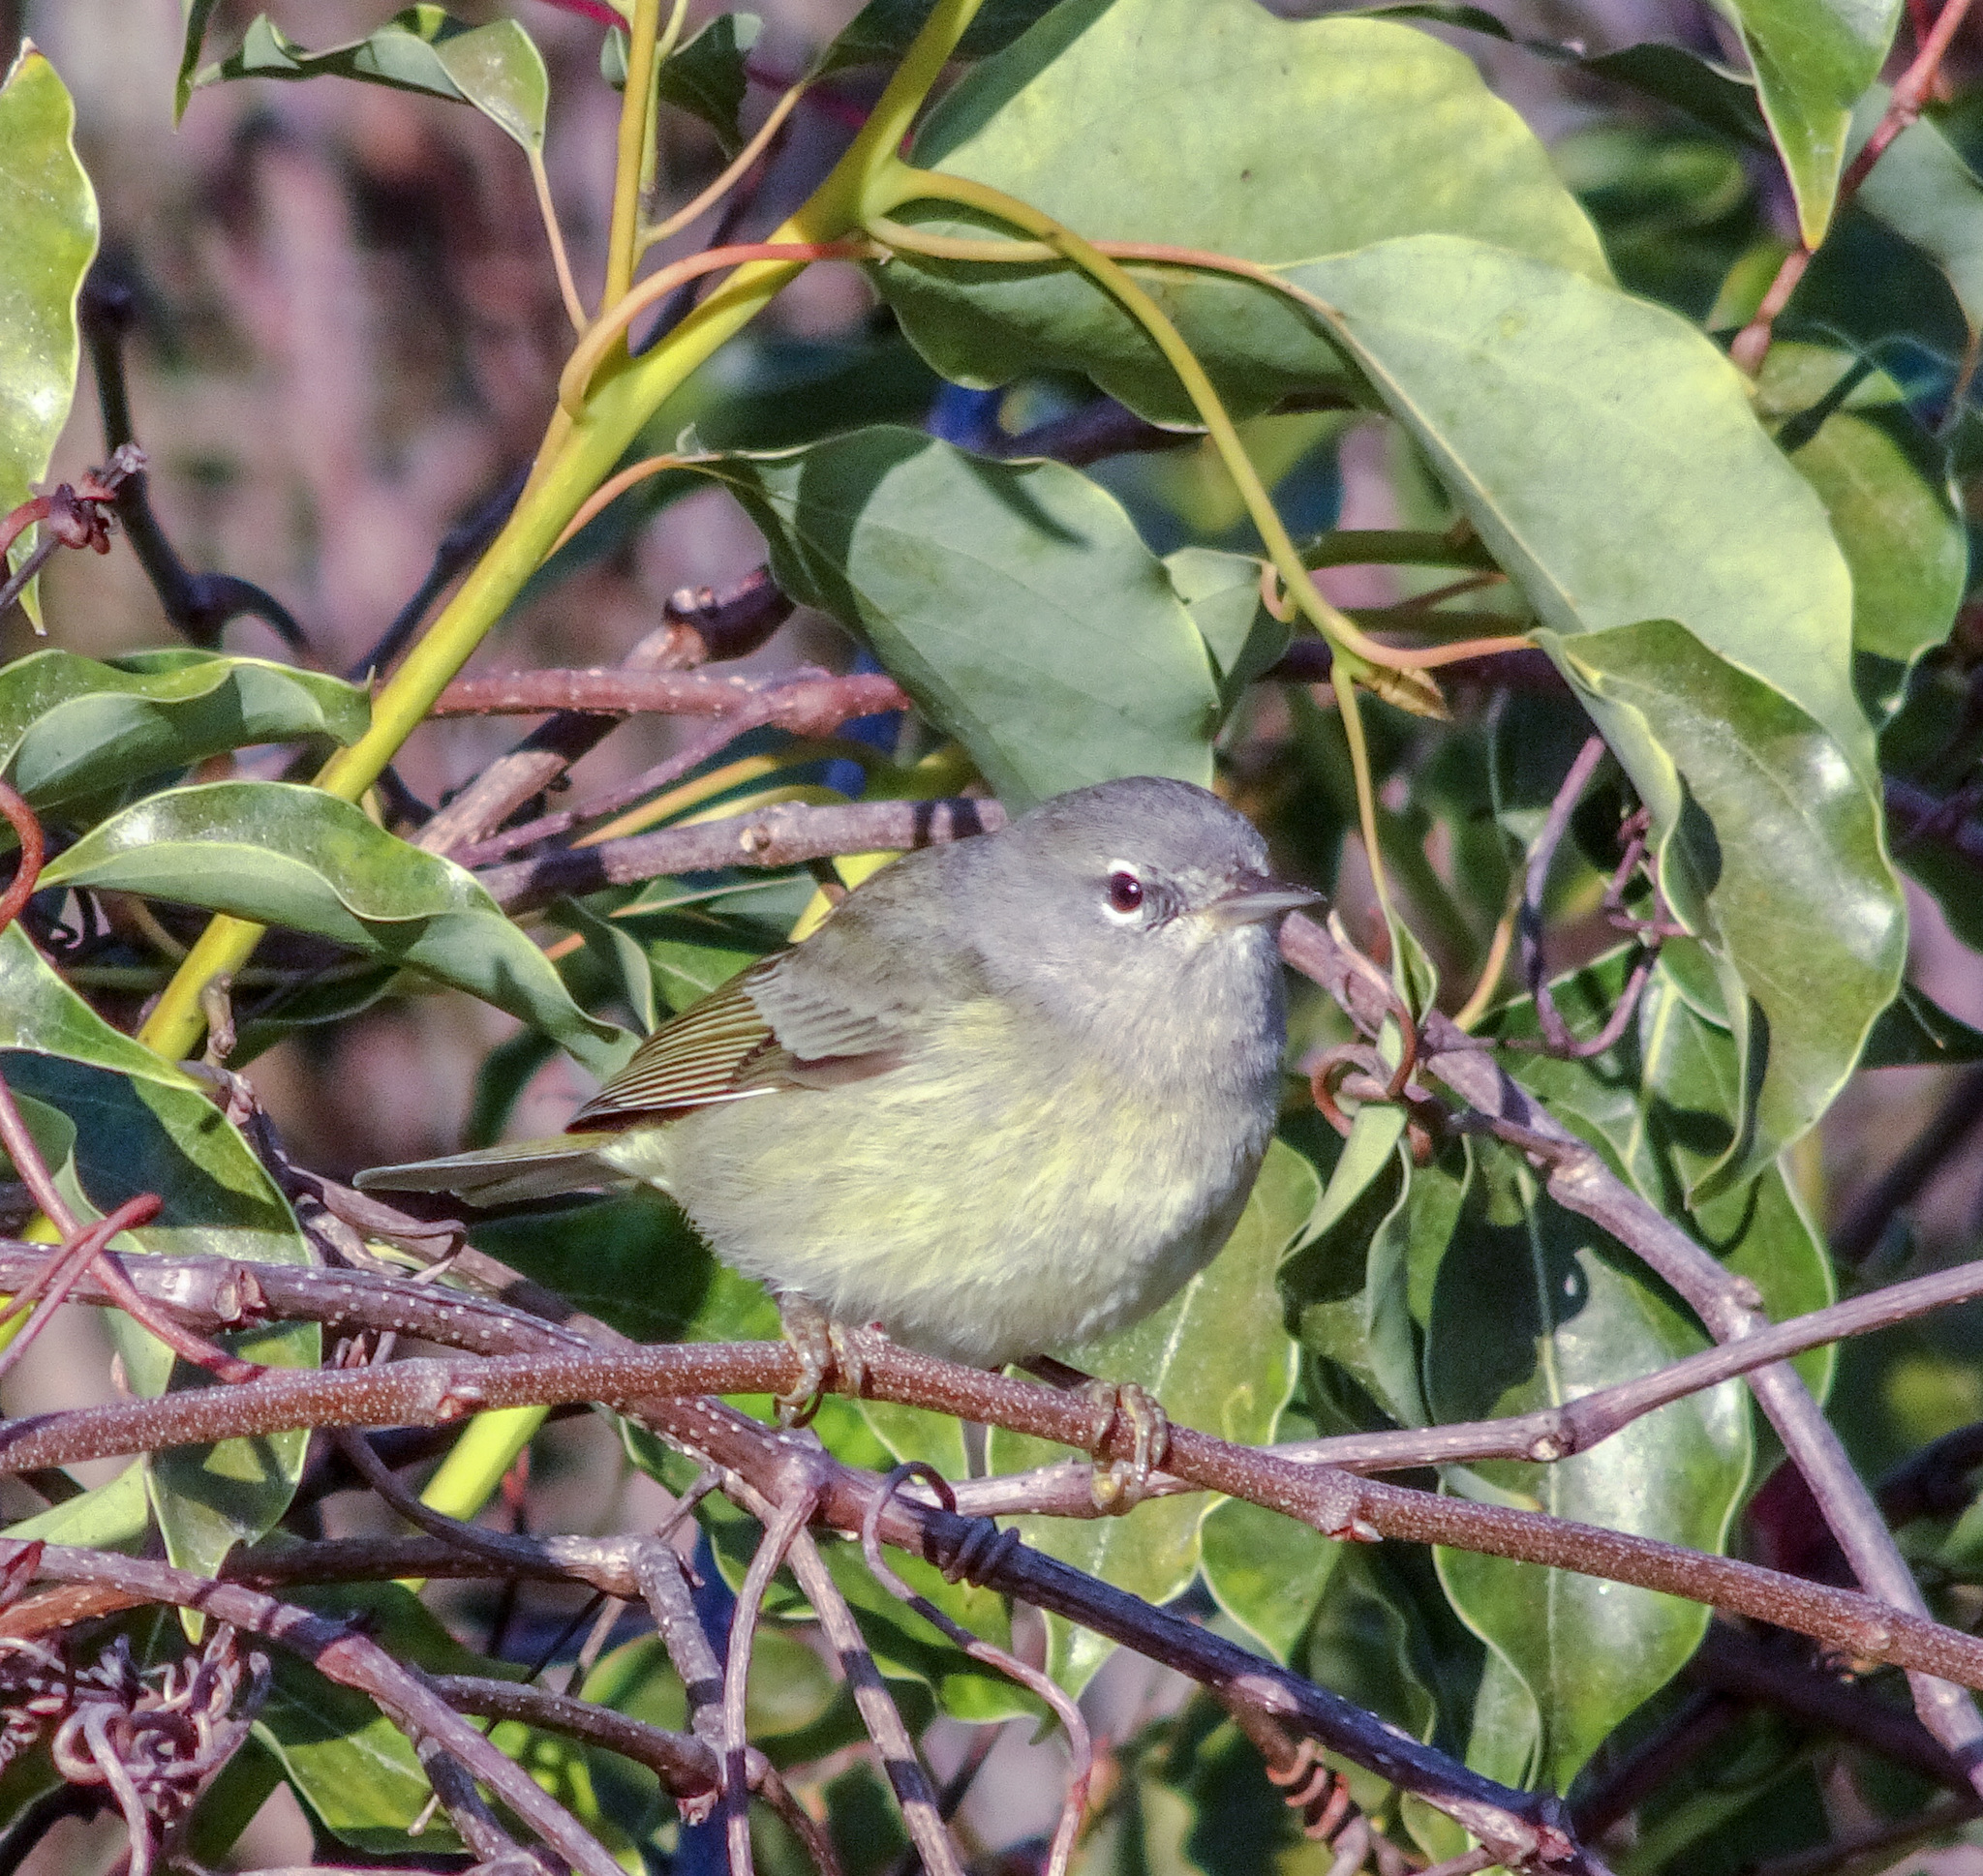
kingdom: Animalia
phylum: Chordata
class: Aves
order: Passeriformes
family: Parulidae
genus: Leiothlypis
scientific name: Leiothlypis celata
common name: Orange-crowned warbler
